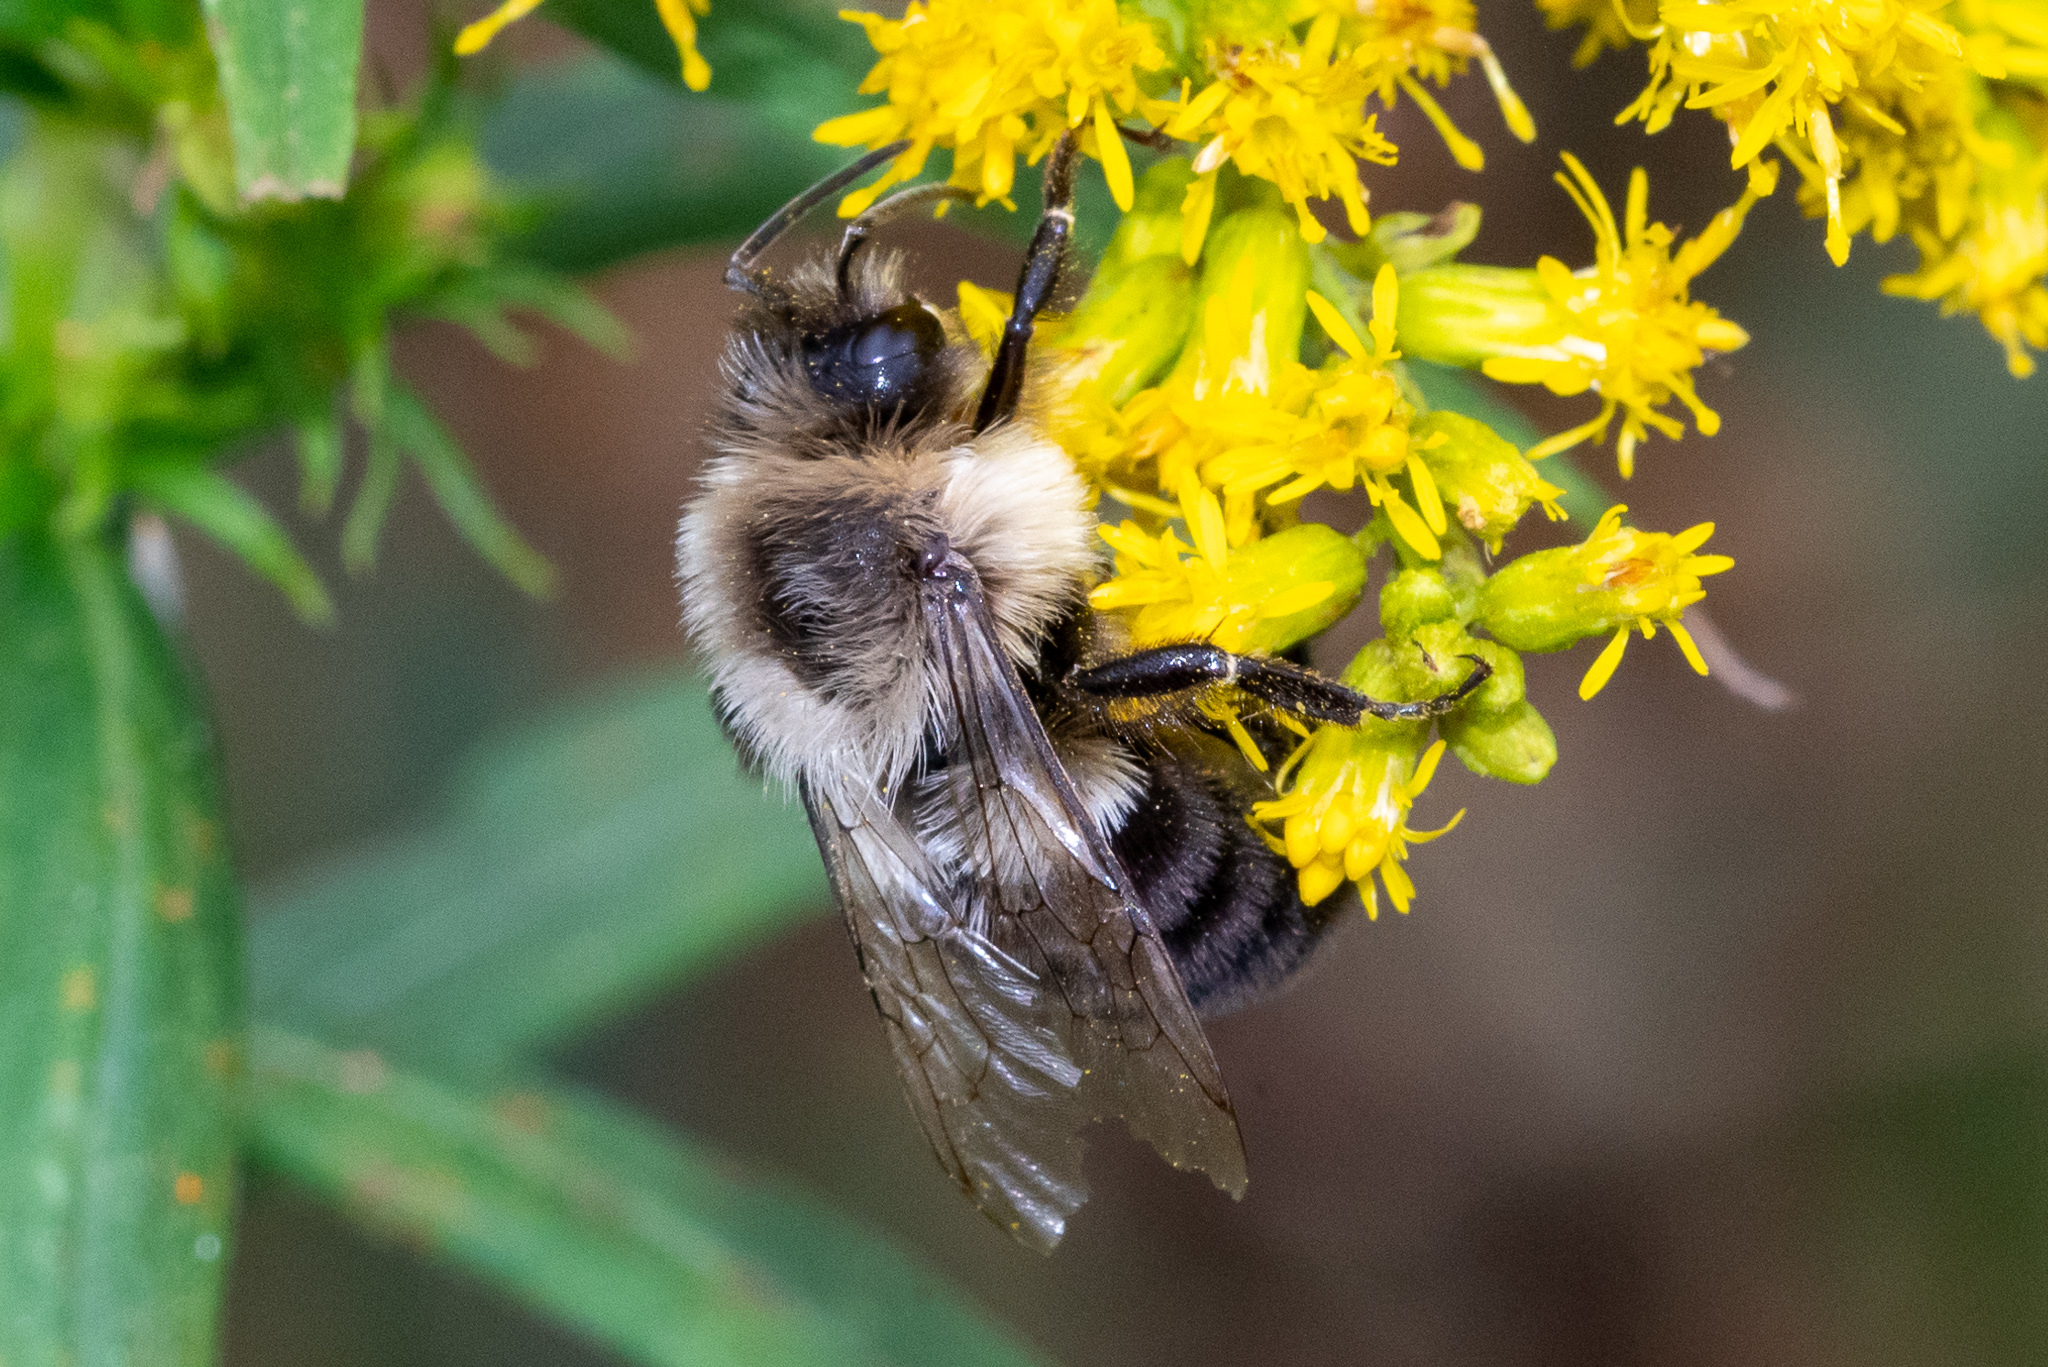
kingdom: Animalia
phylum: Arthropoda
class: Insecta
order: Hymenoptera
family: Apidae
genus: Bombus
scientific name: Bombus impatiens
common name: Common eastern bumble bee
